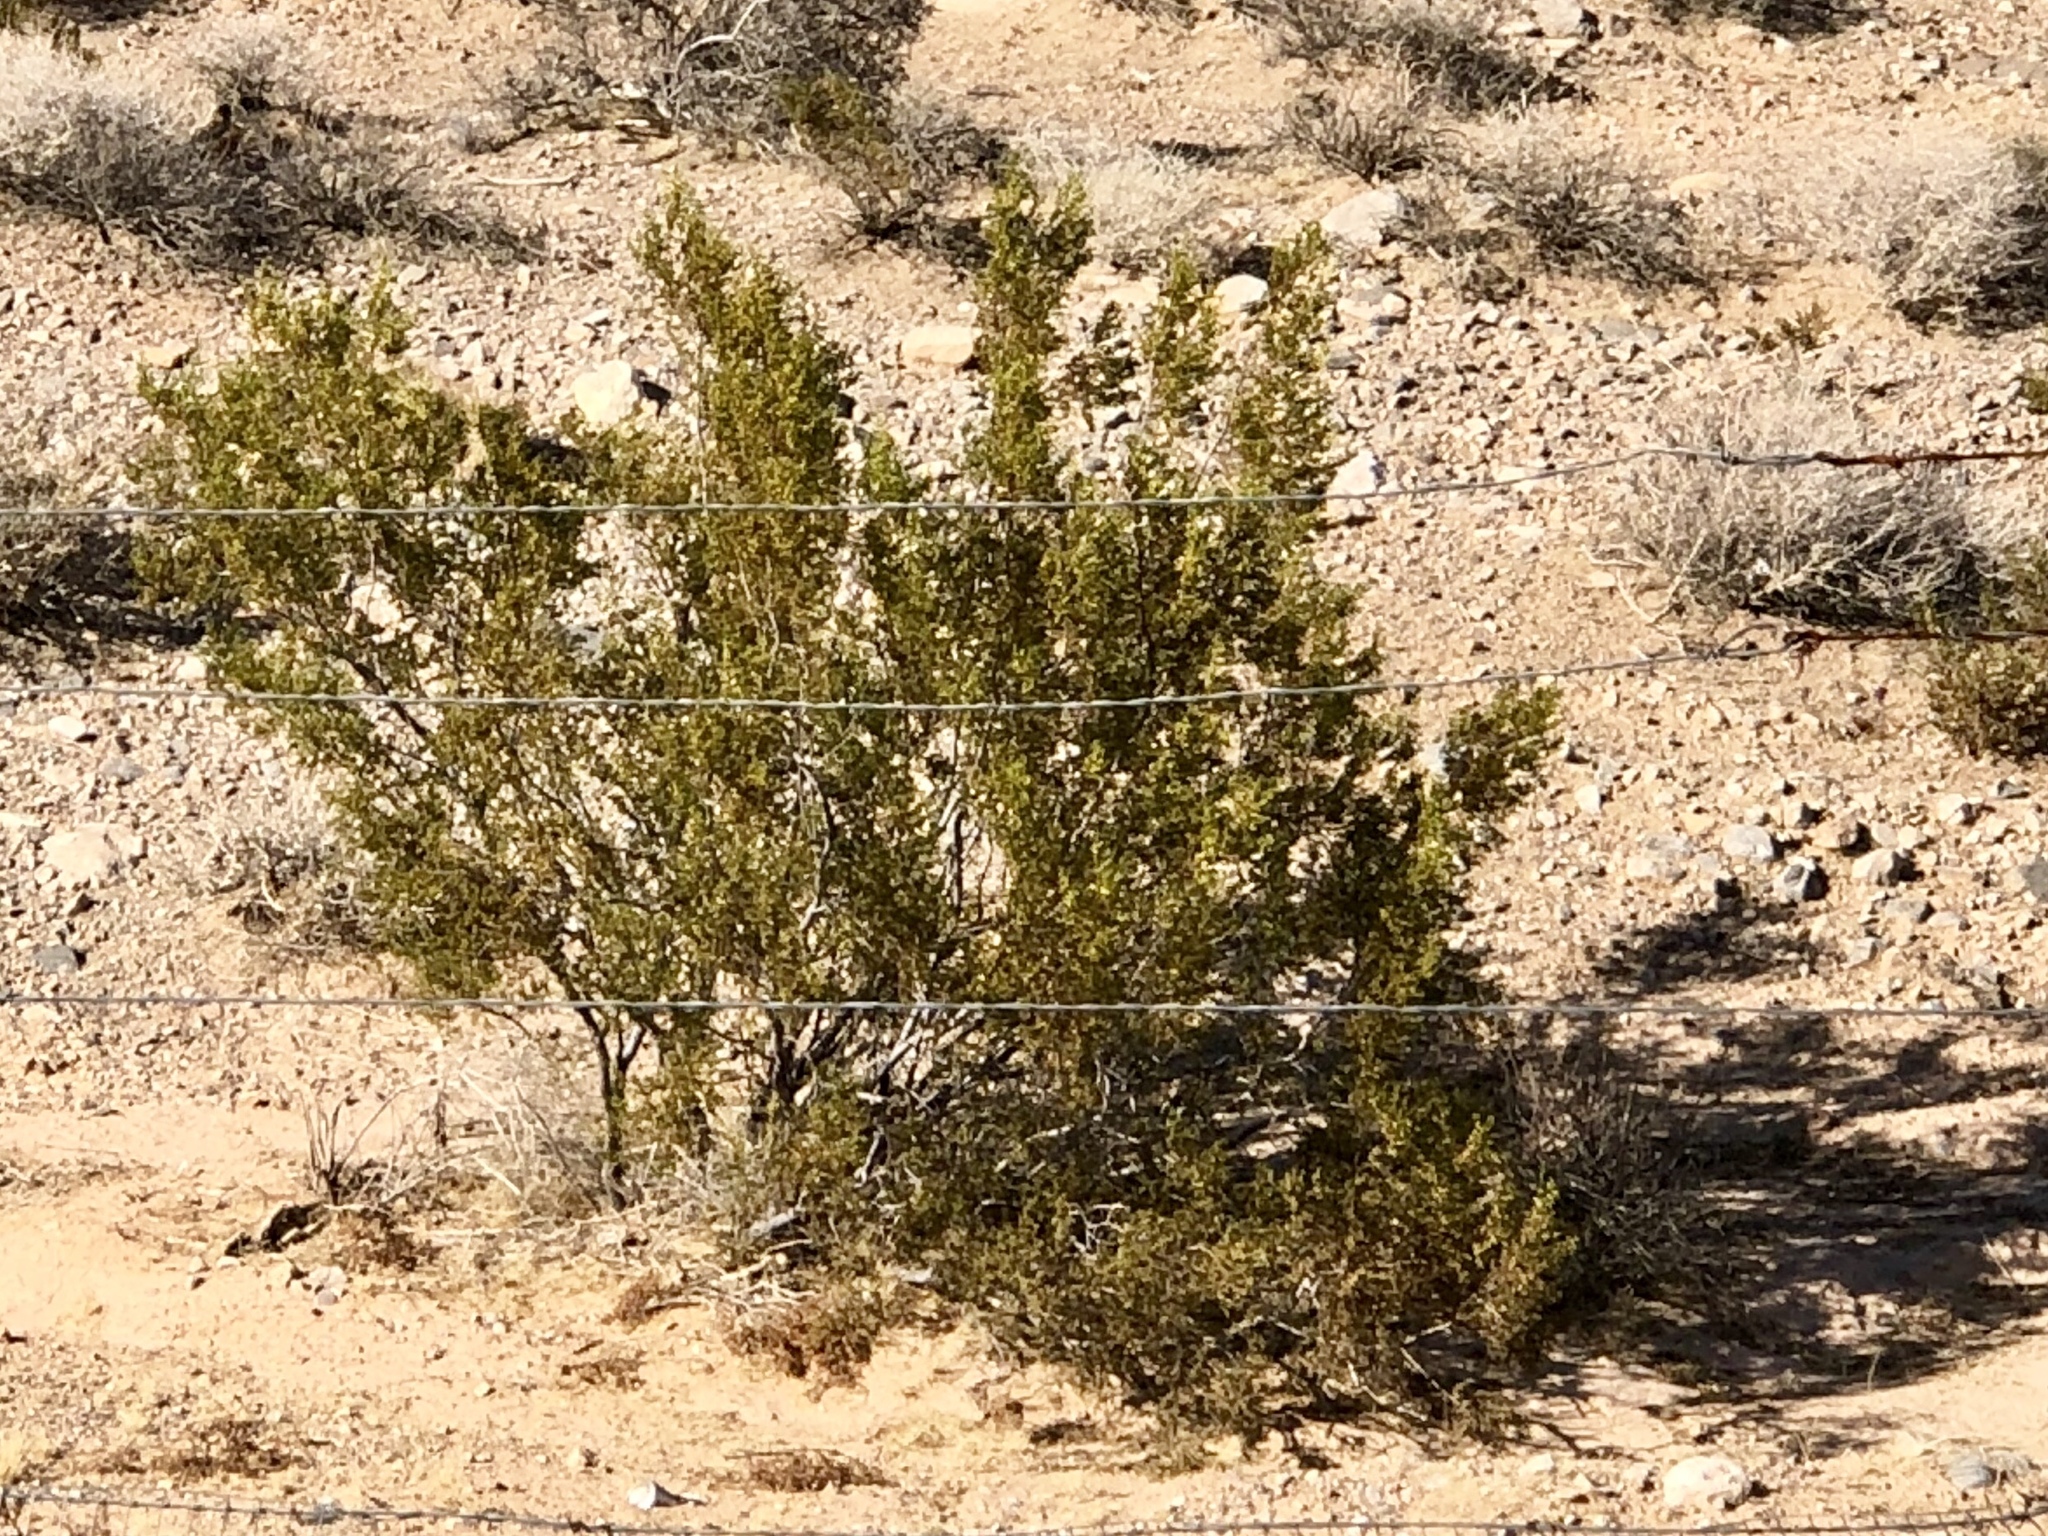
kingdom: Plantae
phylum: Tracheophyta
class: Magnoliopsida
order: Zygophyllales
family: Zygophyllaceae
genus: Larrea
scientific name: Larrea tridentata
